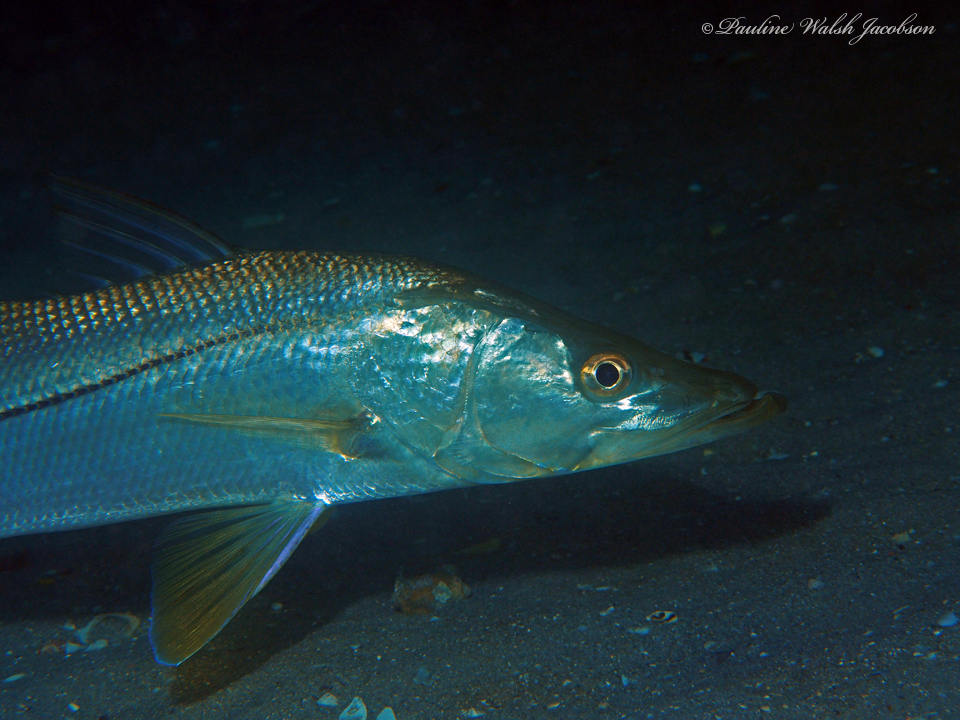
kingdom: Animalia
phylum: Chordata
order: Perciformes
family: Centropomidae
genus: Centropomus
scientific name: Centropomus undecimalis
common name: Snook
